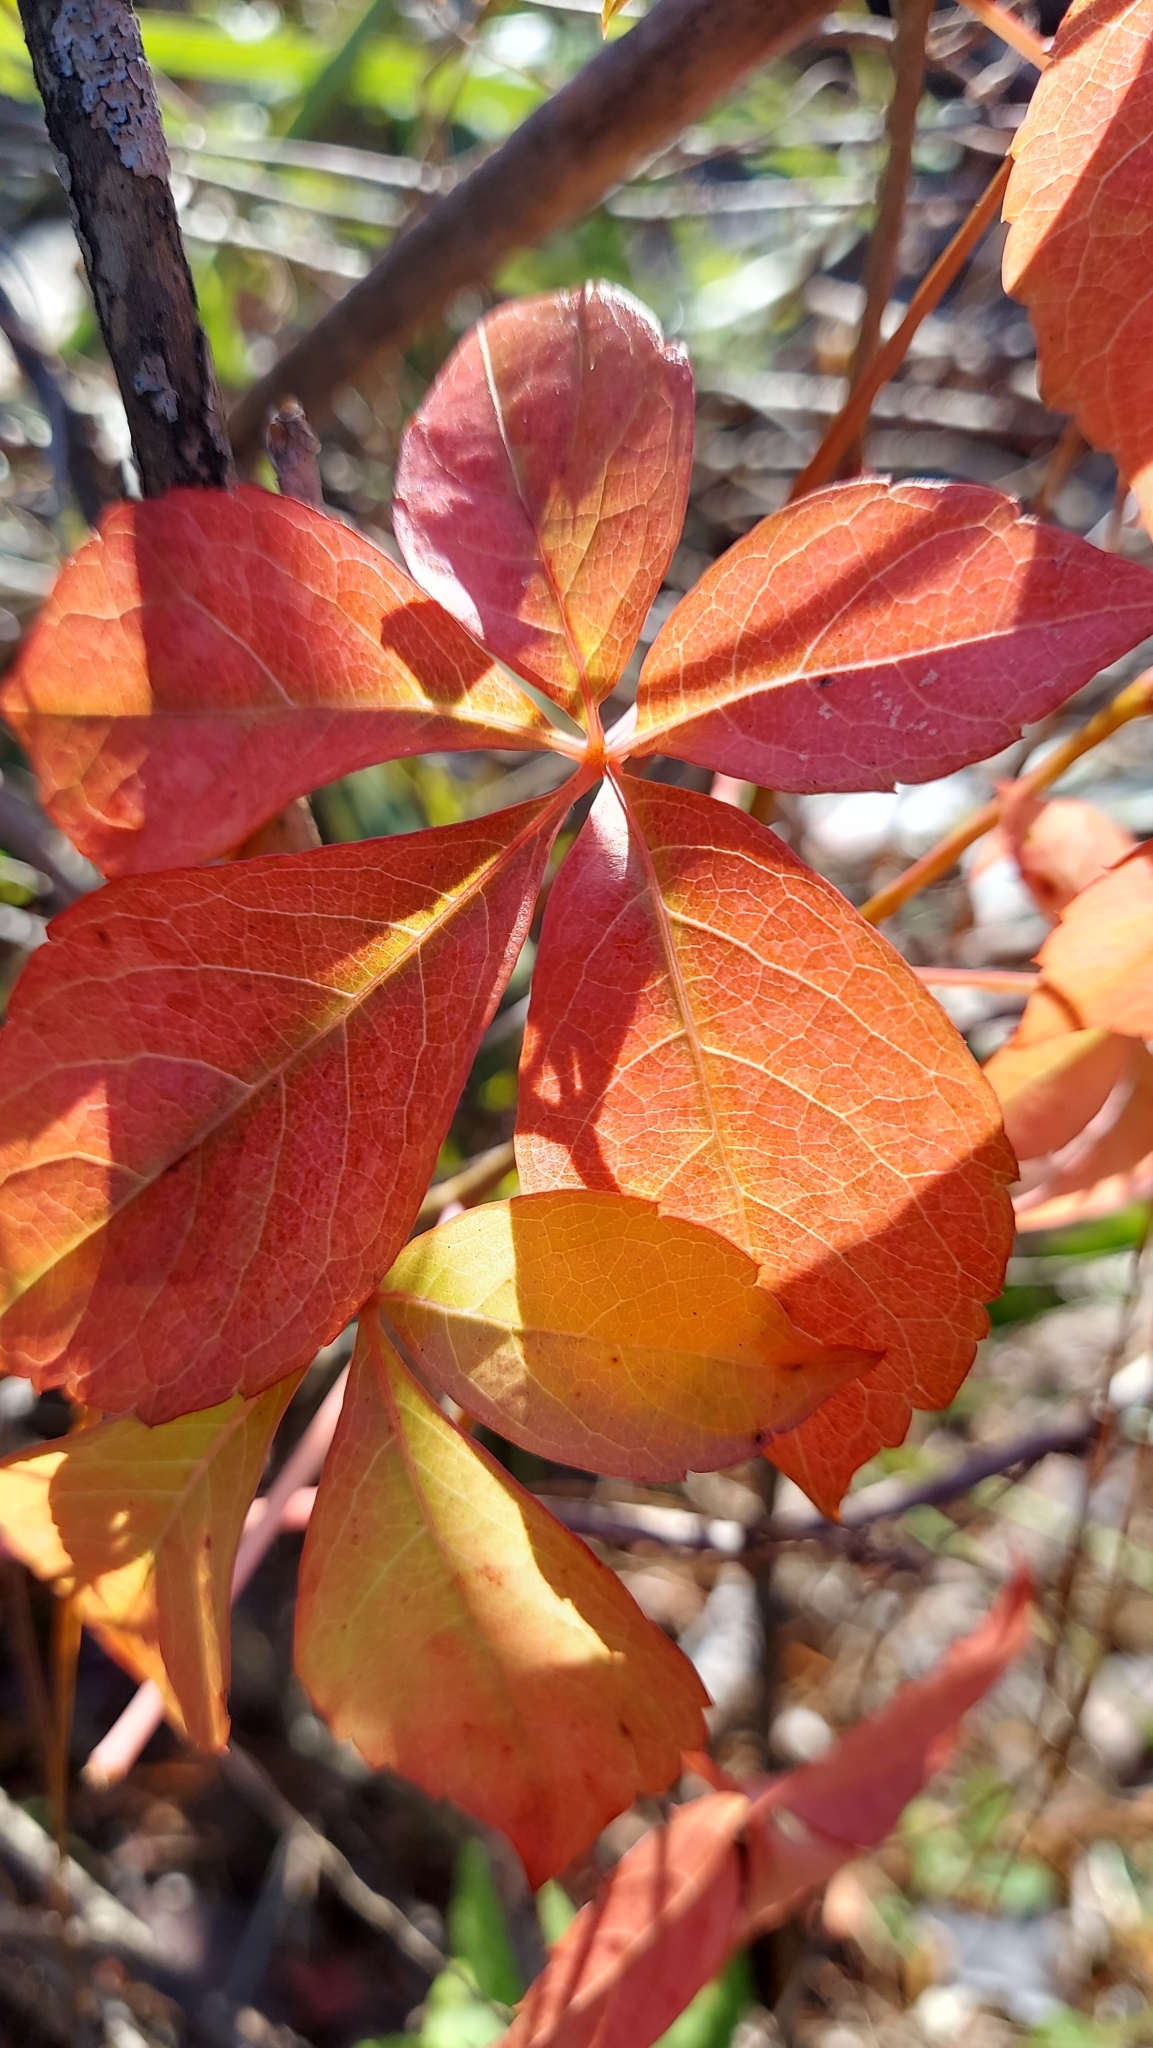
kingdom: Plantae
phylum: Tracheophyta
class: Magnoliopsida
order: Vitales
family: Vitaceae
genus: Parthenocissus
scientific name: Parthenocissus quinquefolia
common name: Virginia-creeper
